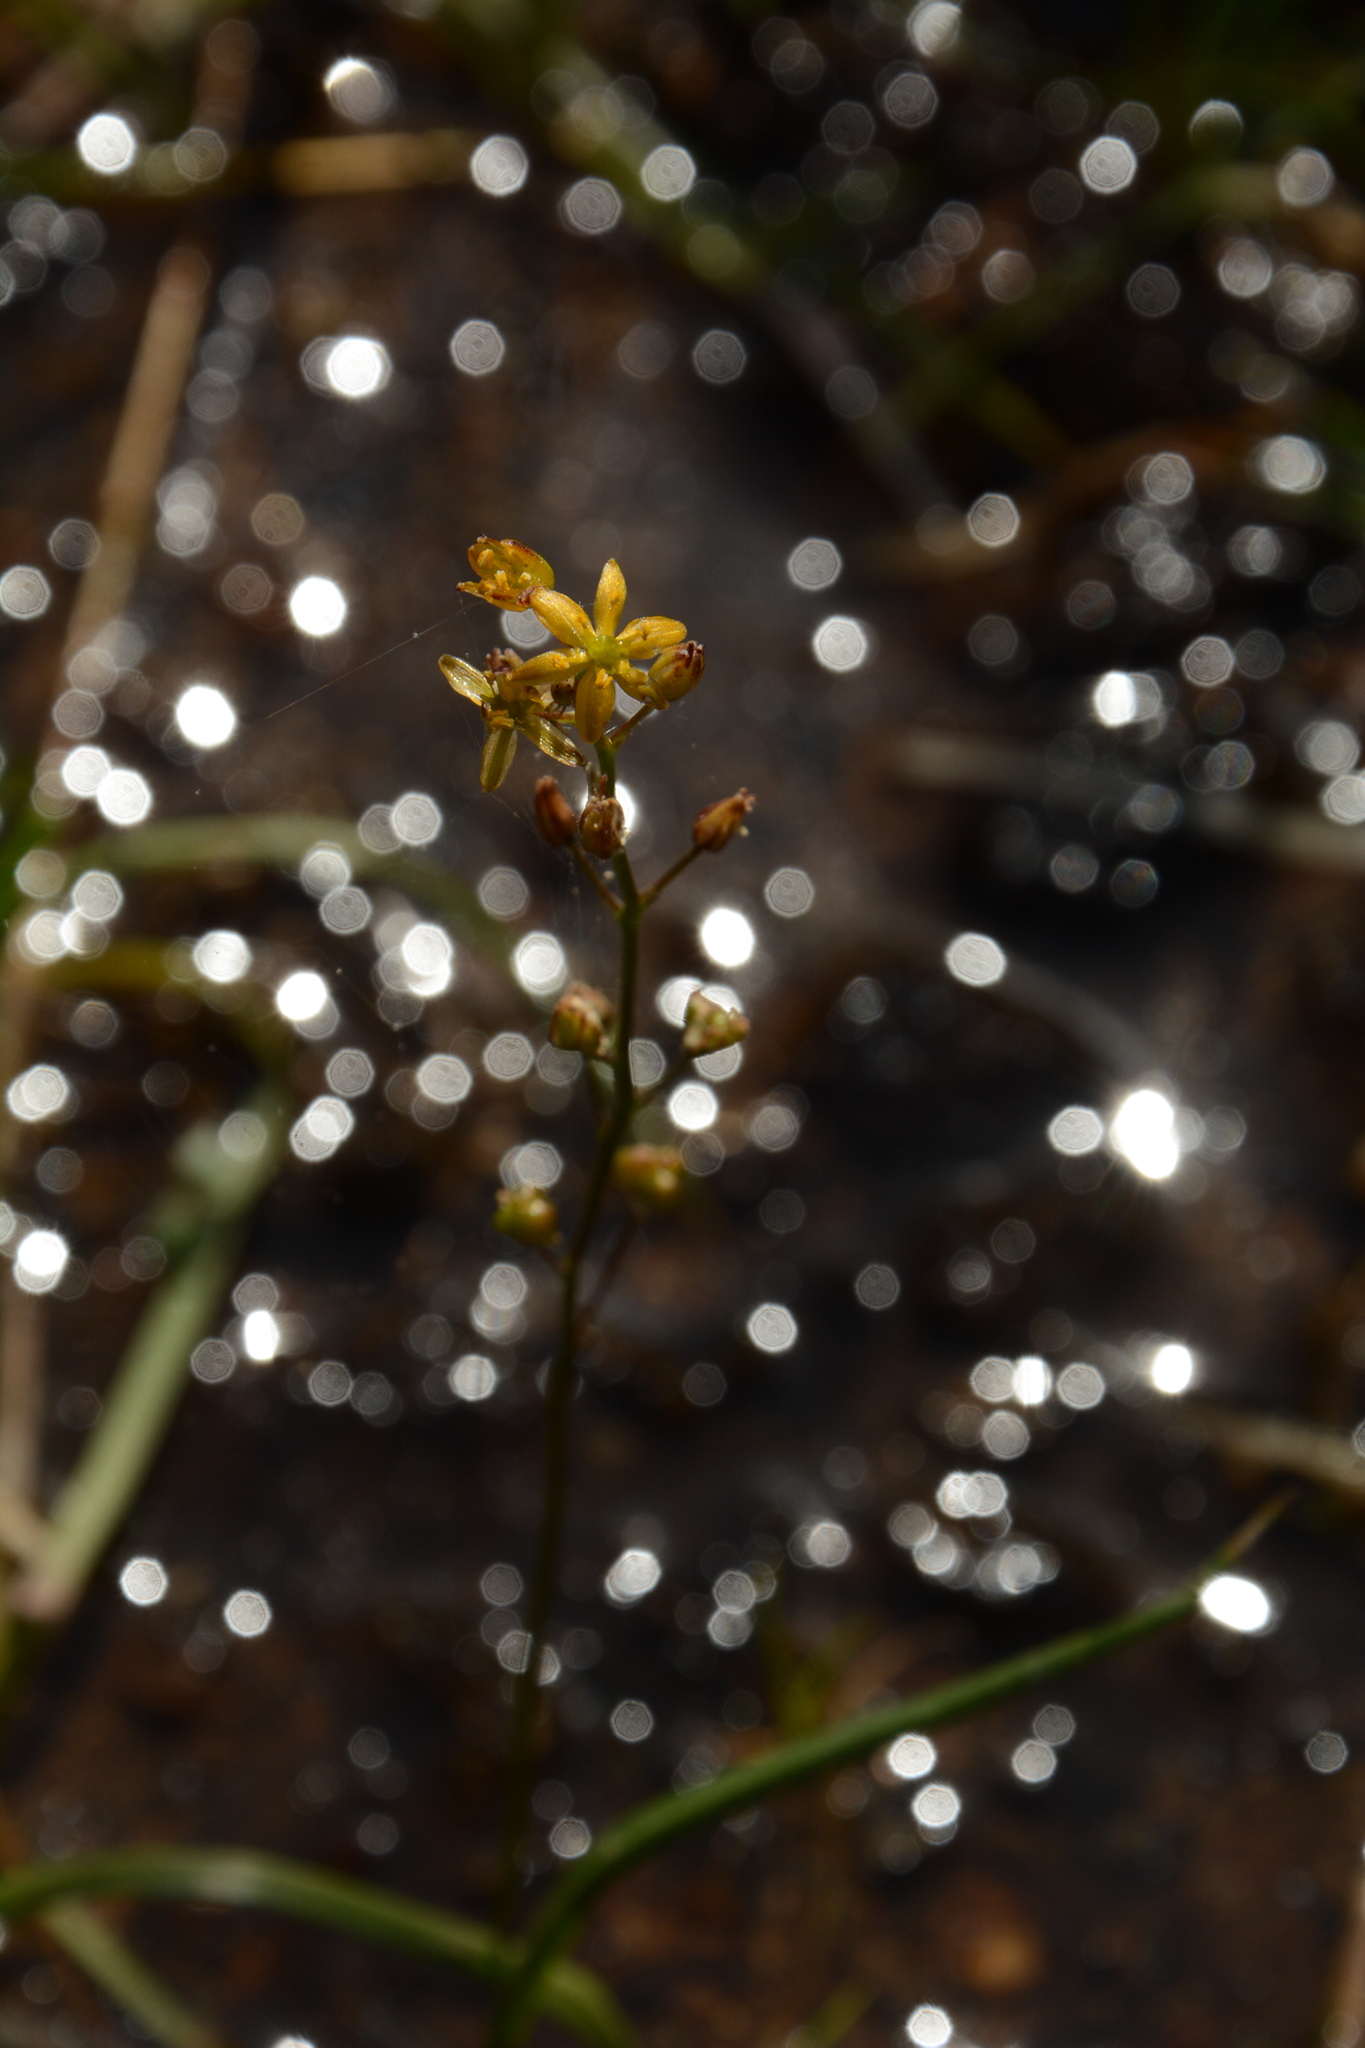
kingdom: Plantae
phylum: Tracheophyta
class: Liliopsida
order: Asparagales
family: Asparagaceae
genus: Schoenolirion
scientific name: Schoenolirion croceum
